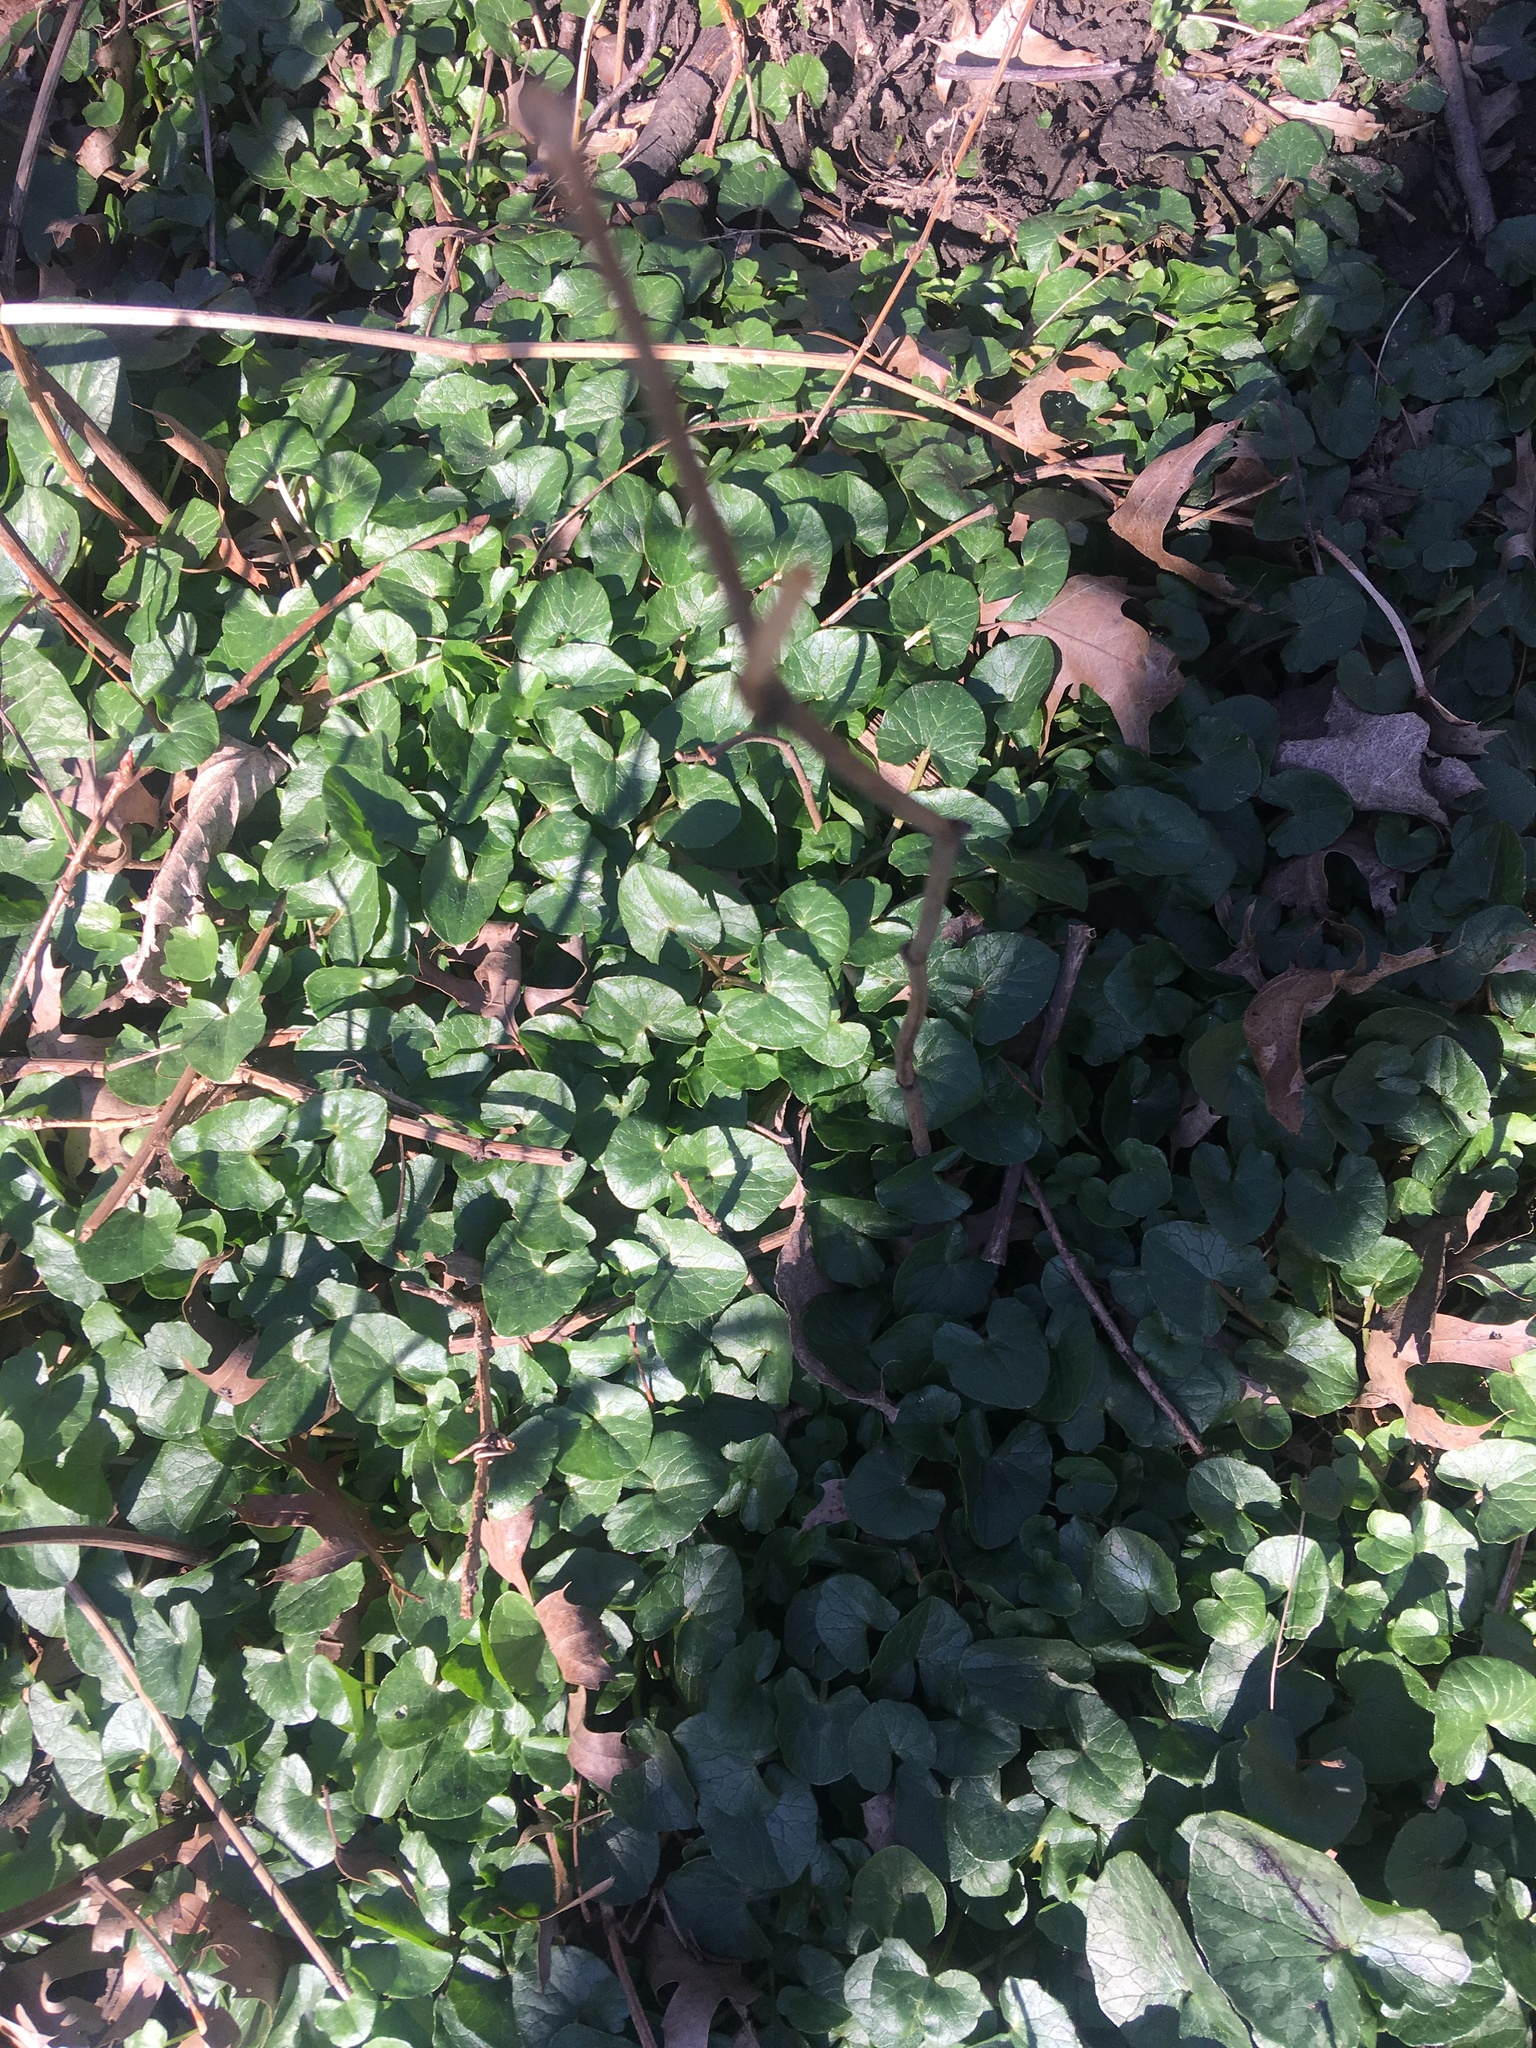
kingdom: Plantae
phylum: Tracheophyta
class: Magnoliopsida
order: Ranunculales
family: Ranunculaceae
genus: Ficaria
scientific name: Ficaria verna
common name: Lesser celandine
